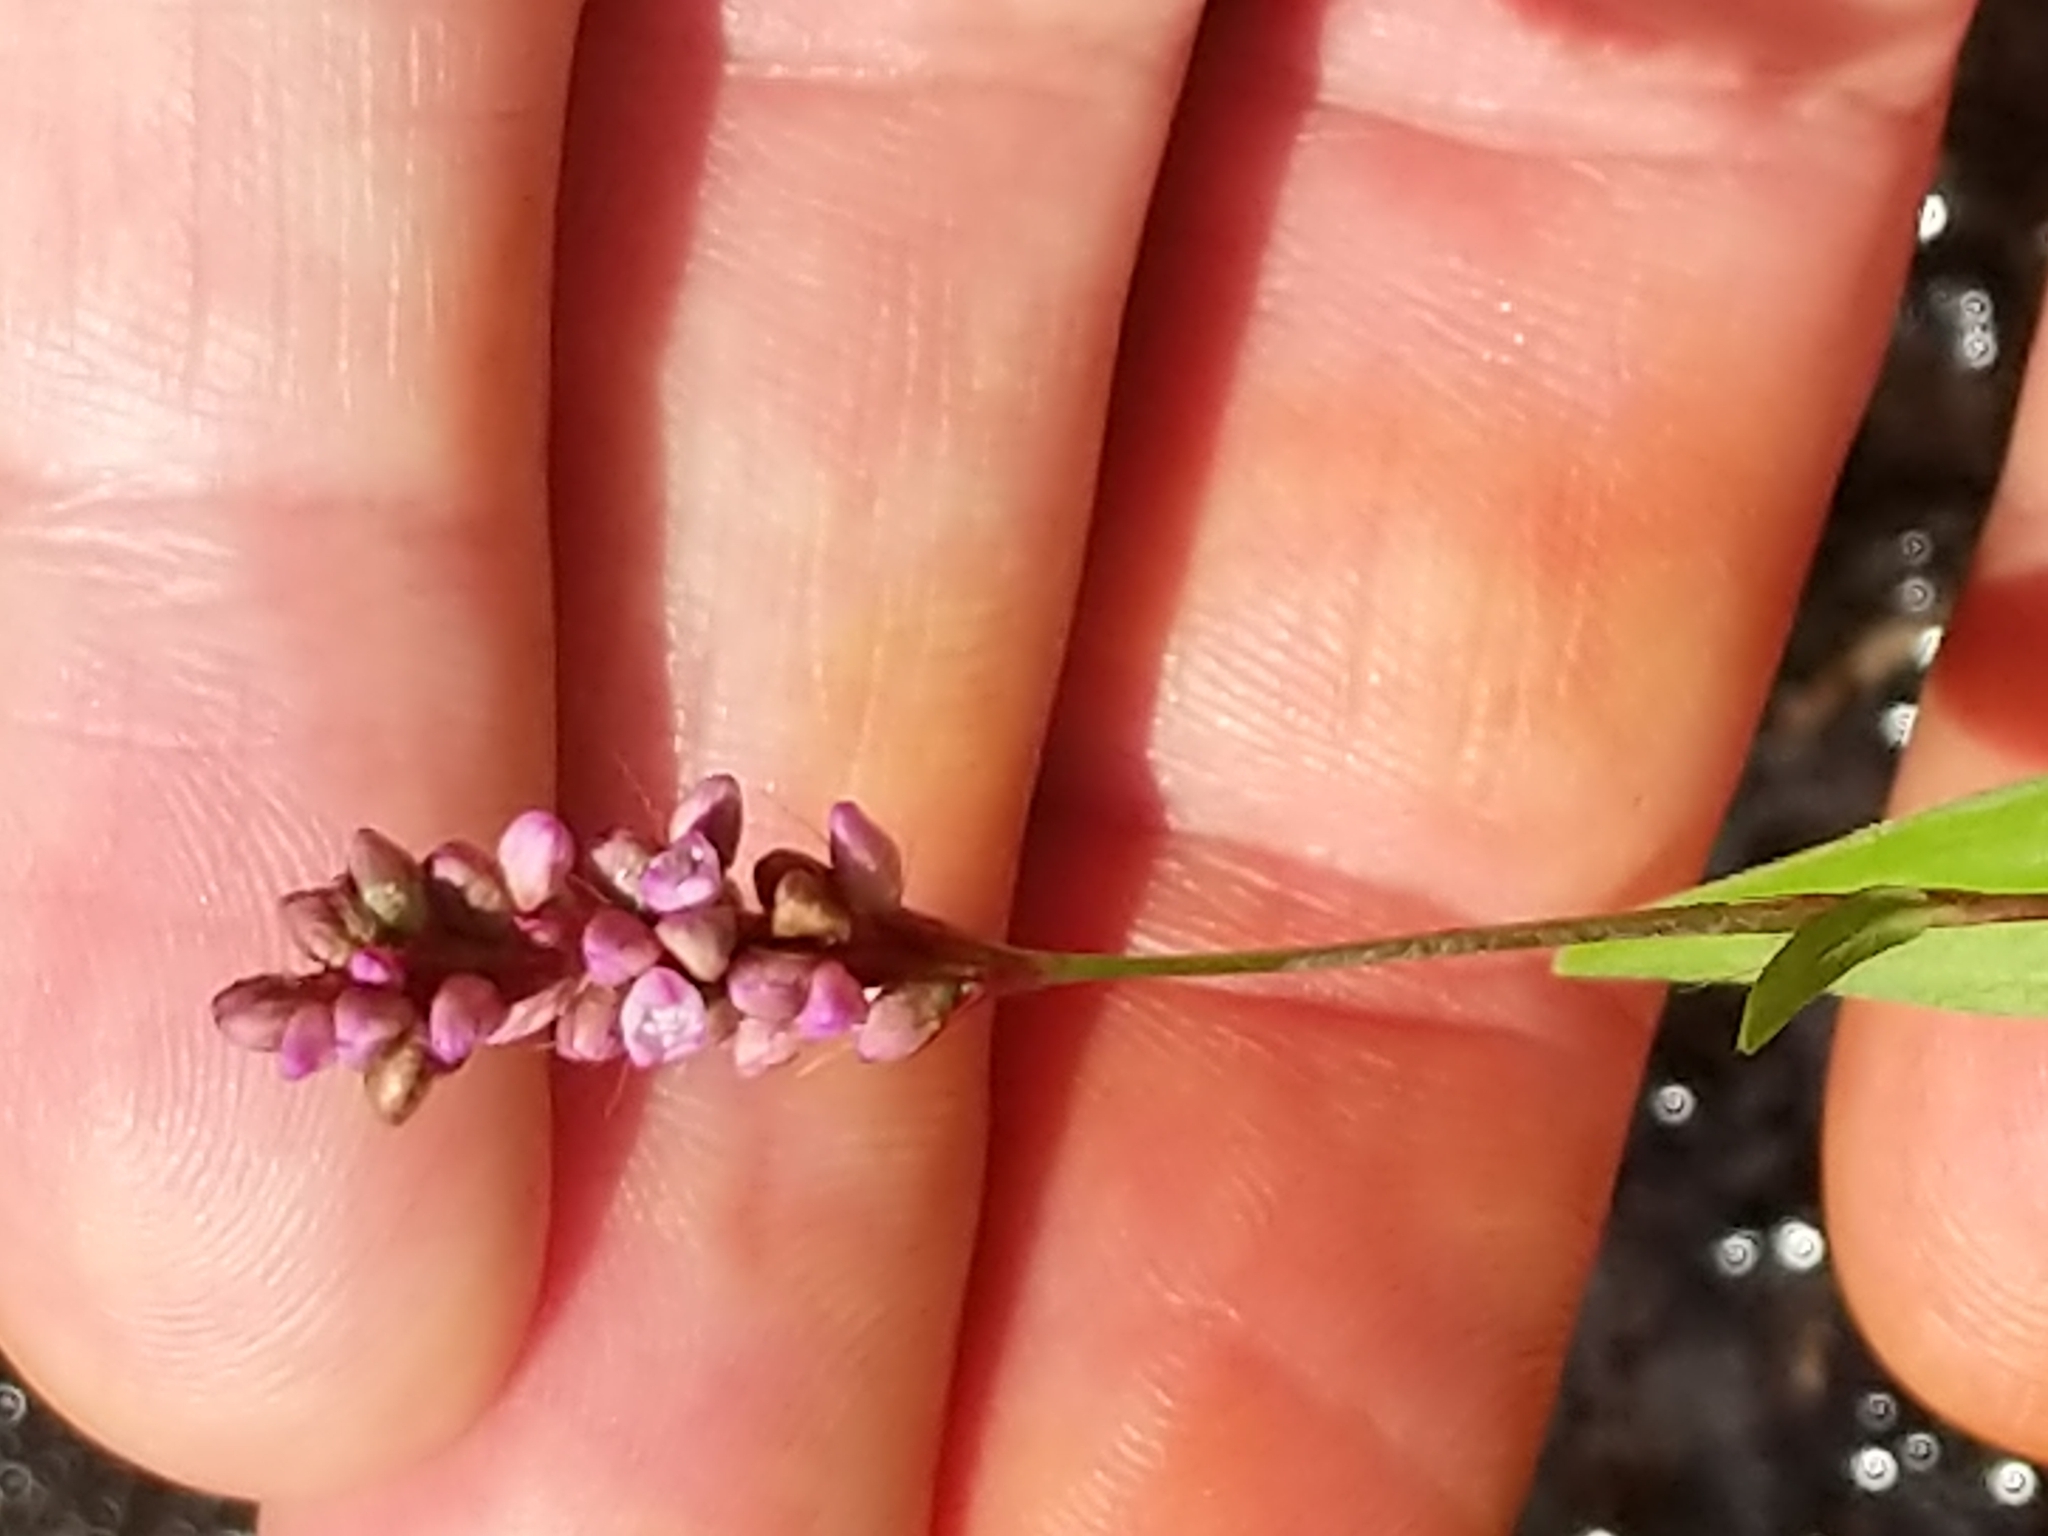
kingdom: Plantae
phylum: Tracheophyta
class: Magnoliopsida
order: Caryophyllales
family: Polygonaceae
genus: Persicaria
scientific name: Persicaria longiseta
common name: Bristly lady's-thumb
